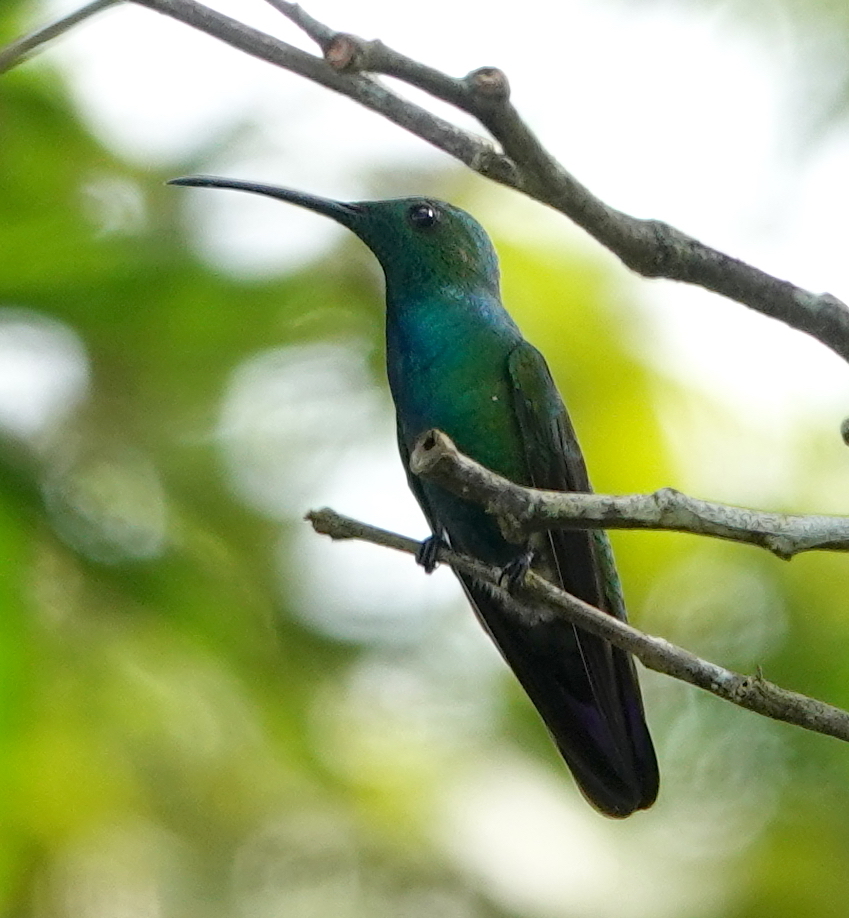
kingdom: Animalia
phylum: Chordata
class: Aves
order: Apodiformes
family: Trochilidae
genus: Anthracothorax
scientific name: Anthracothorax veraguensis
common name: Veraguan mango
